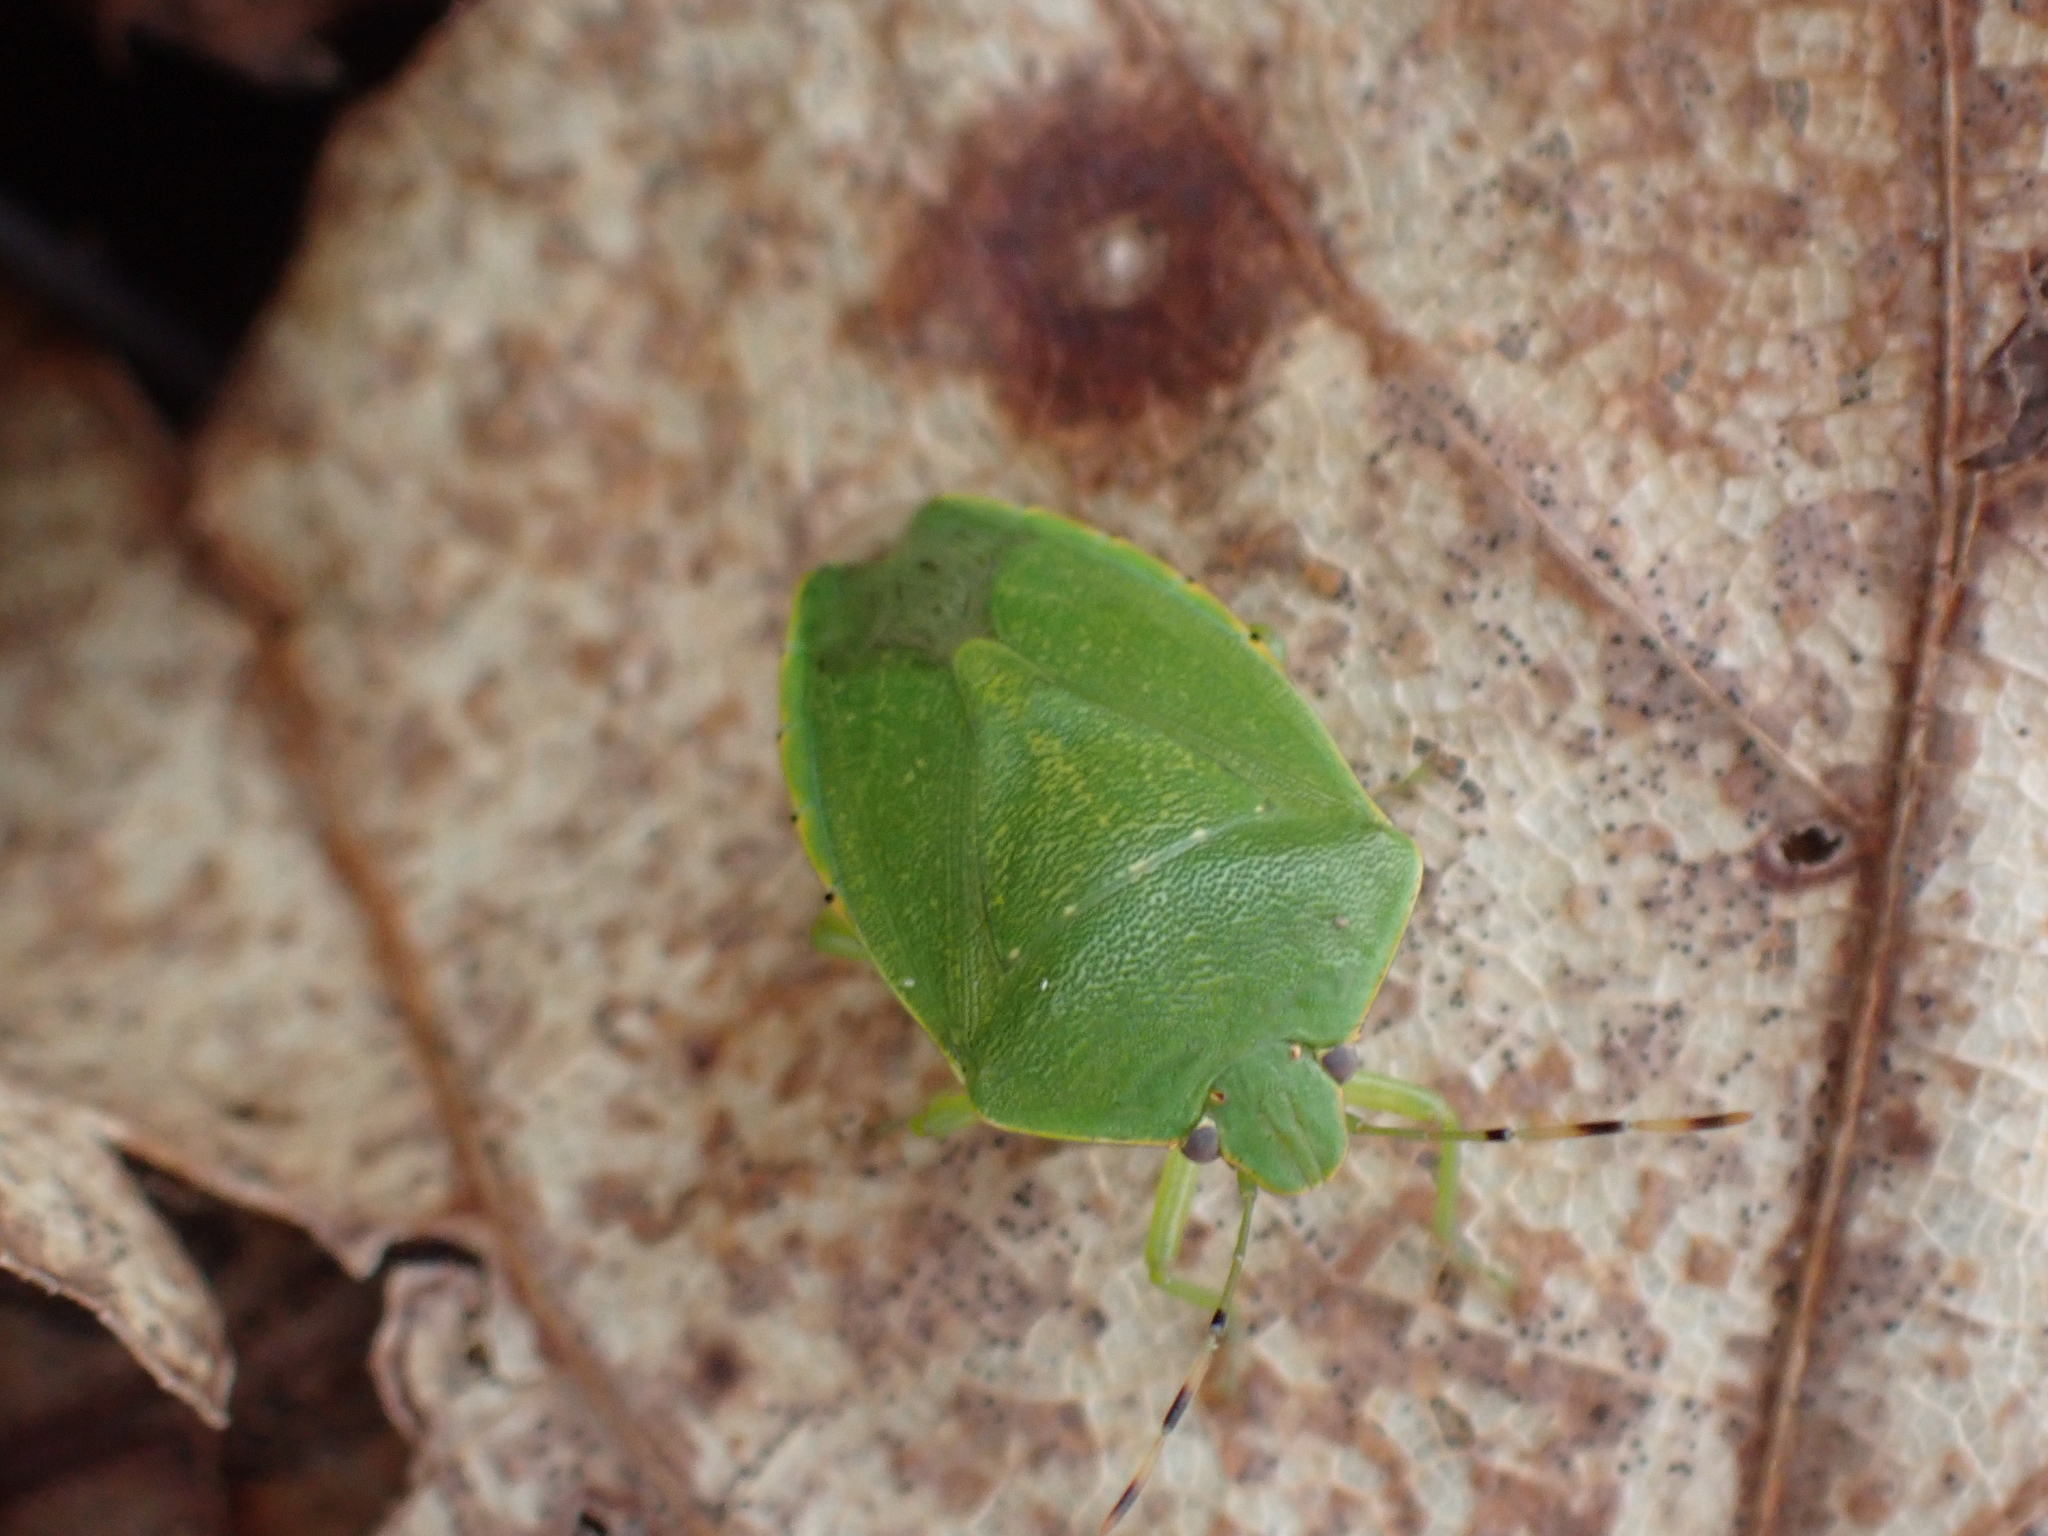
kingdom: Animalia
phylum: Arthropoda
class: Insecta
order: Hemiptera
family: Pentatomidae
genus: Chinavia
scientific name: Chinavia hilaris
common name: Green stink bug
